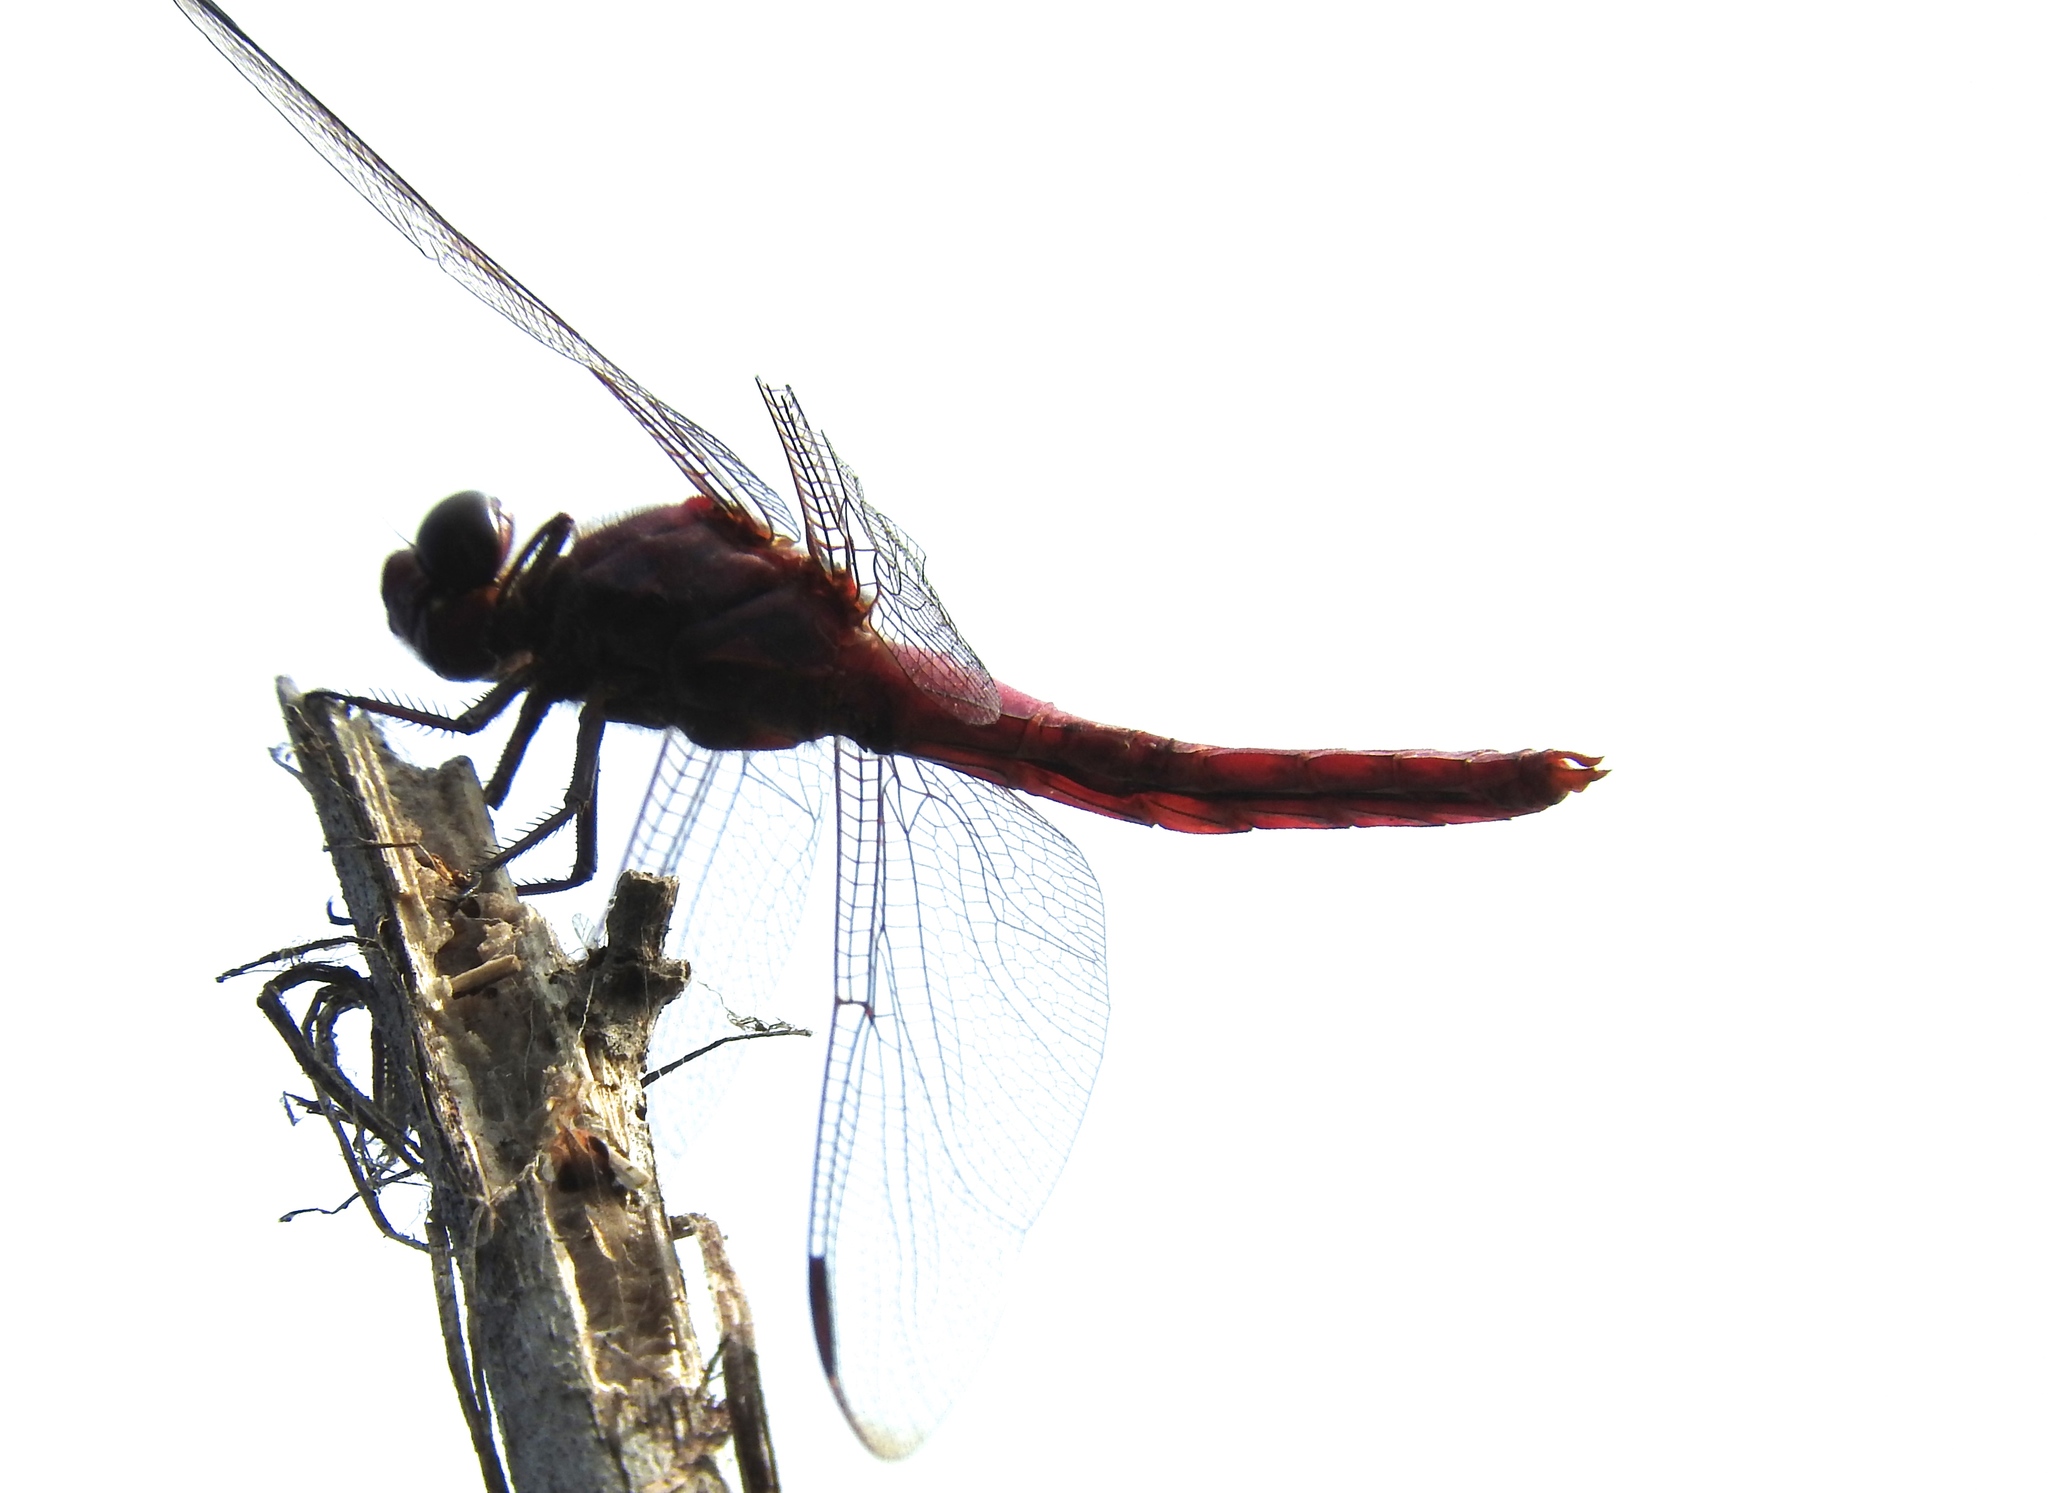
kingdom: Animalia
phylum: Arthropoda
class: Insecta
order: Odonata
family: Libellulidae
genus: Orthemis
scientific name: Orthemis ferruginea
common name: Roseate skimmer
